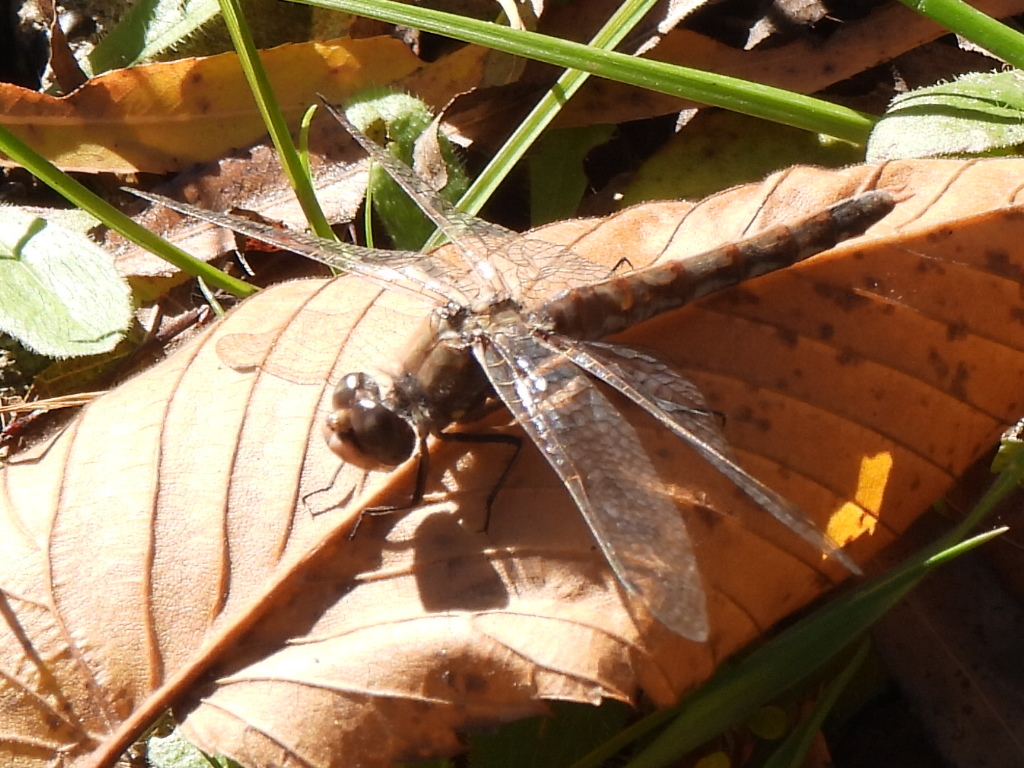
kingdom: Animalia
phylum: Arthropoda
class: Insecta
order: Odonata
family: Libellulidae
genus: Sympetrum
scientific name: Sympetrum corruptum
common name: Variegated meadowhawk
